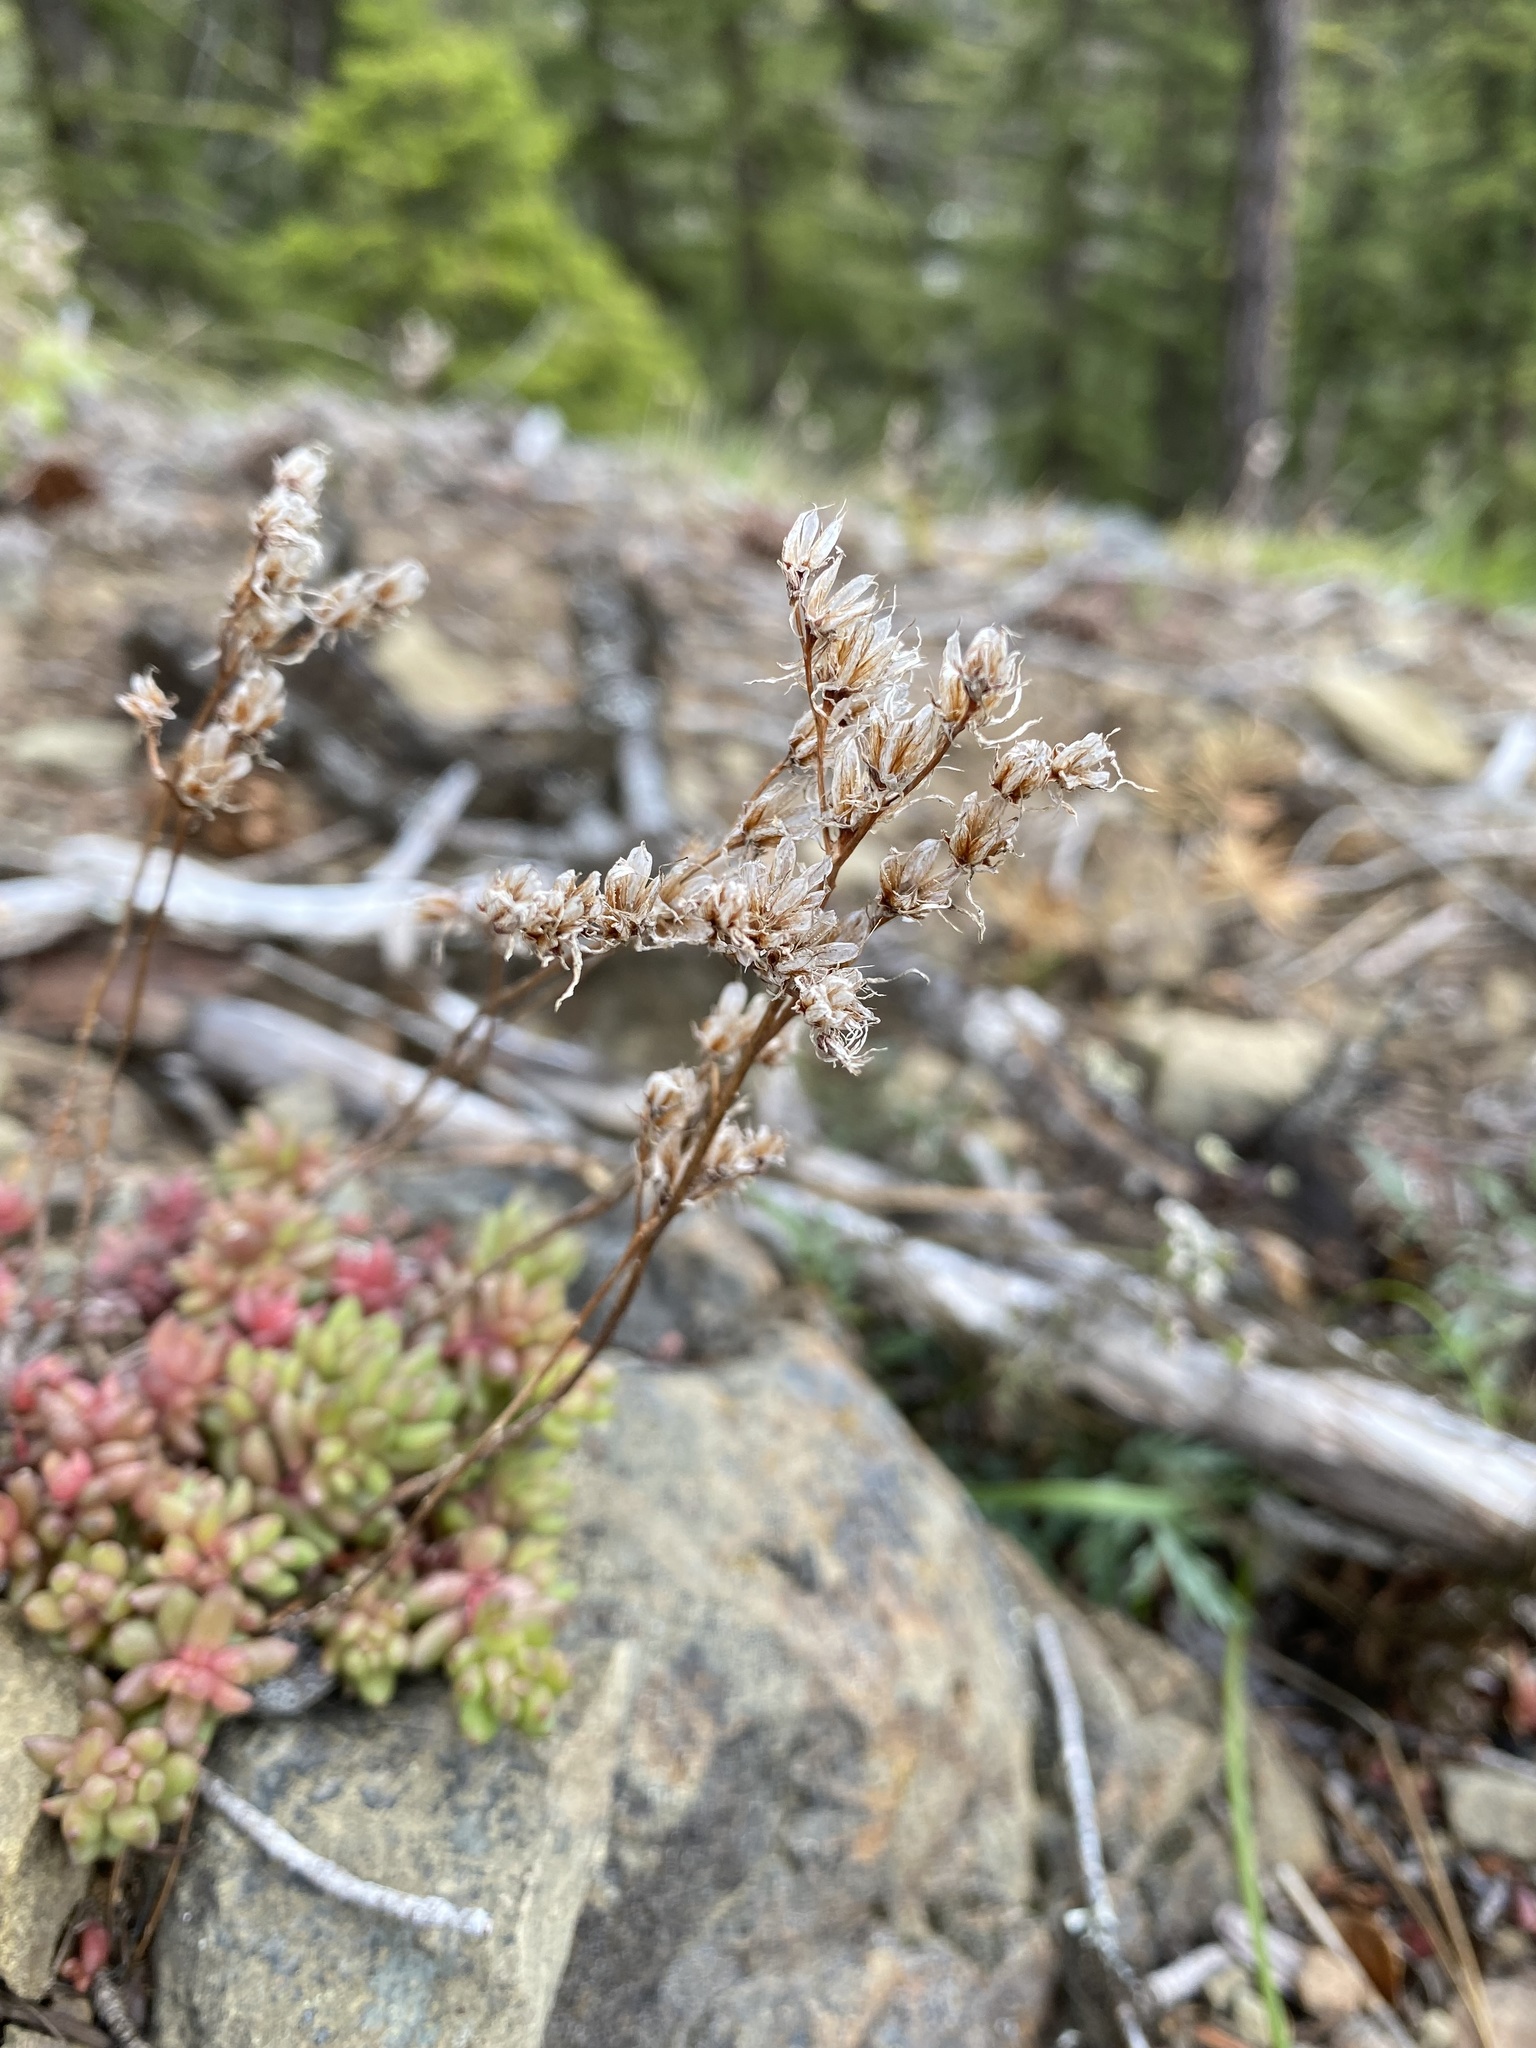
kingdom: Plantae
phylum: Tracheophyta
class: Magnoliopsida
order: Saxifragales
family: Crassulaceae
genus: Sedum
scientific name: Sedum rupicola
